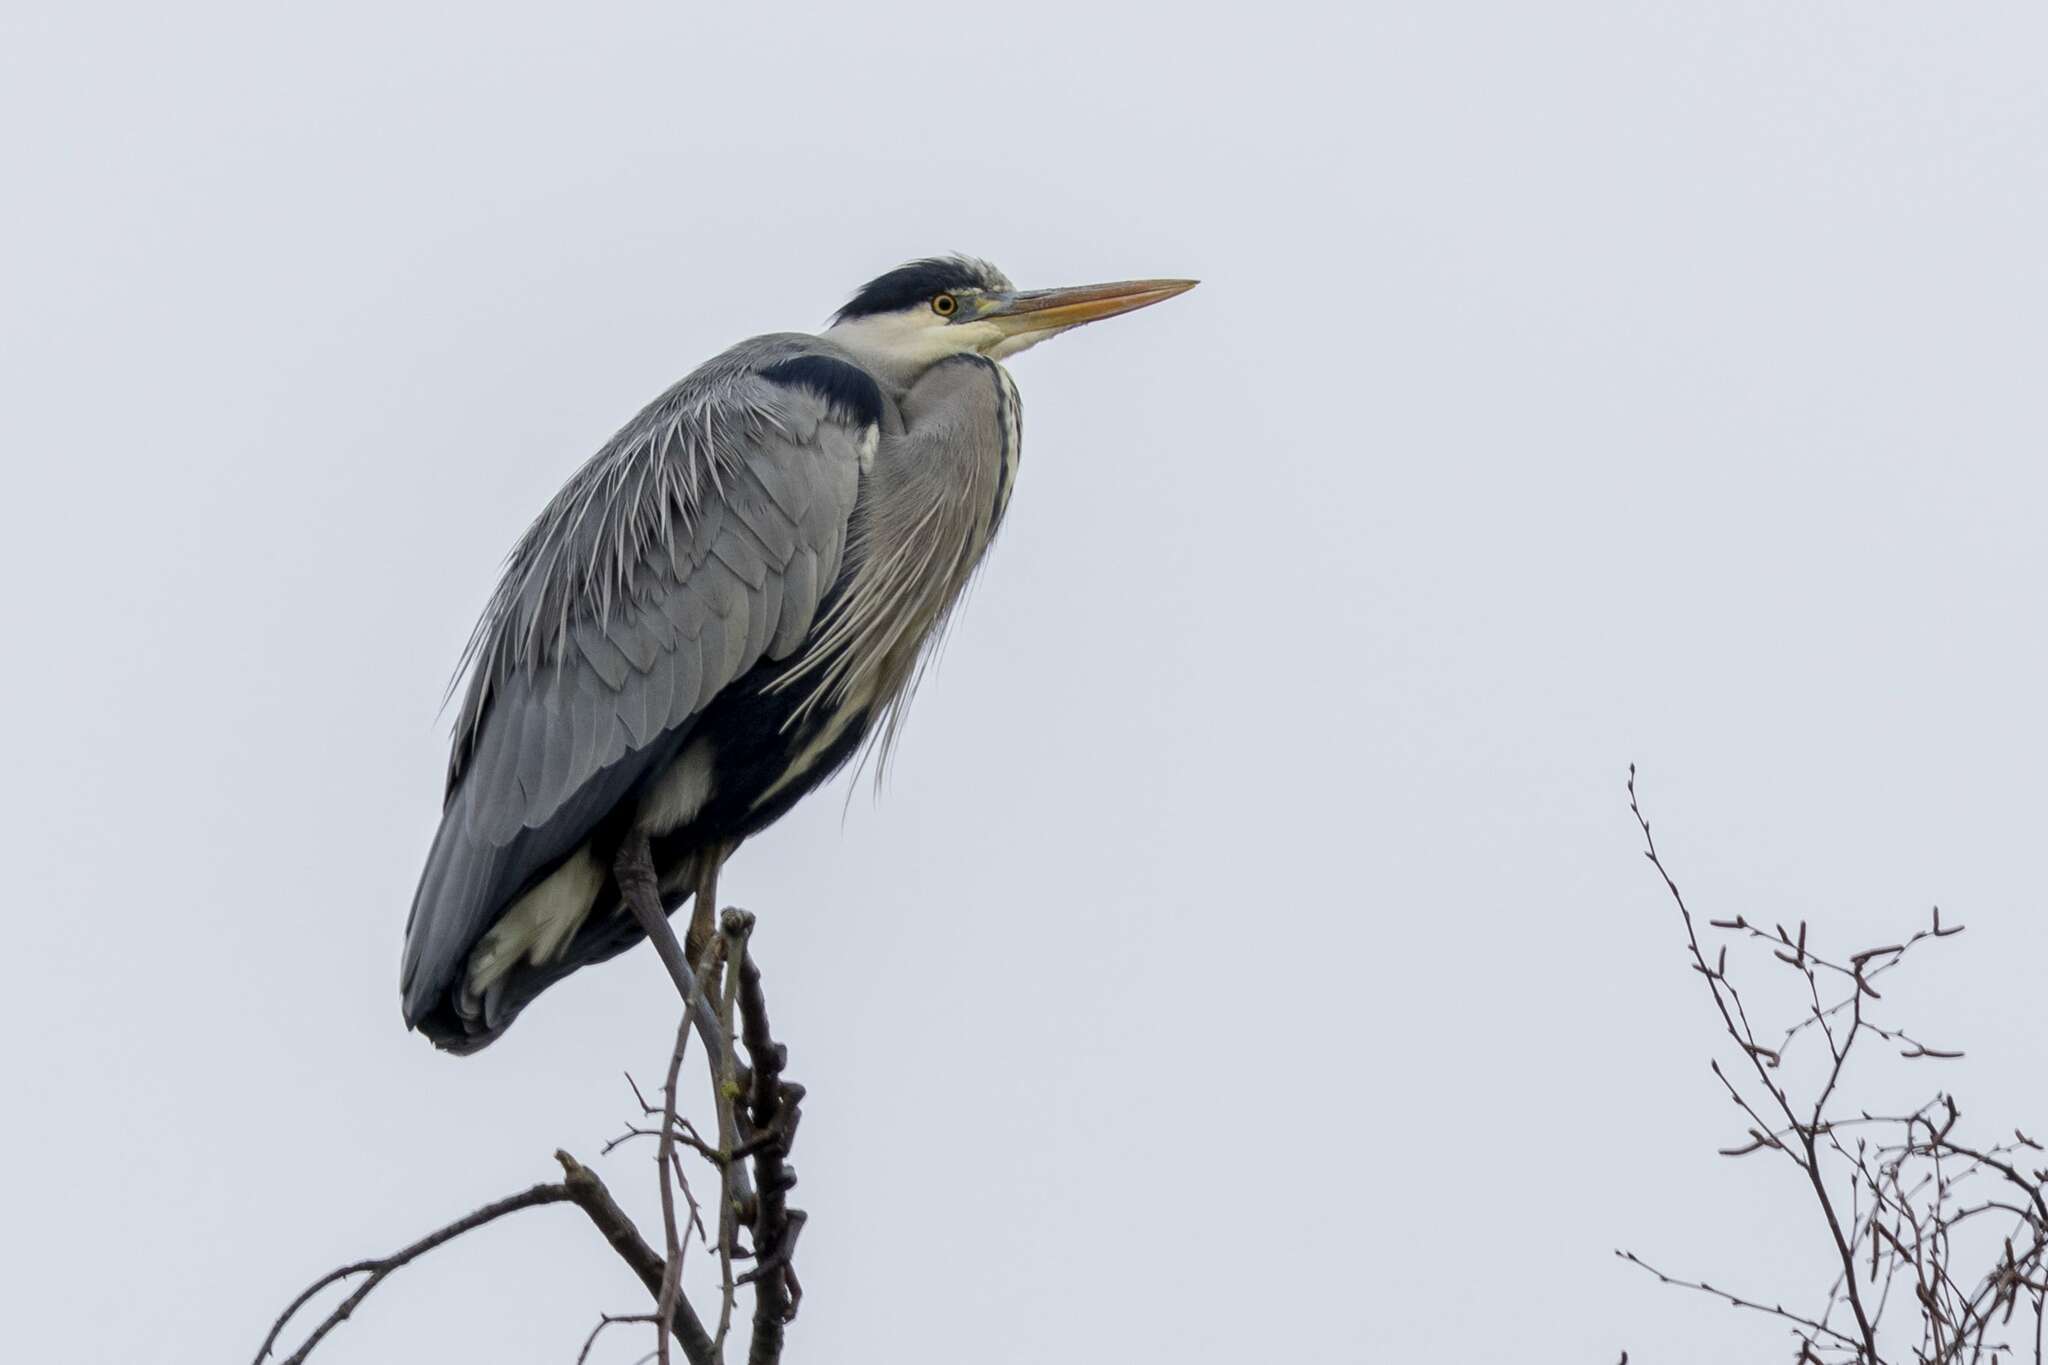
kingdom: Animalia
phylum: Chordata
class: Aves
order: Pelecaniformes
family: Ardeidae
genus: Ardea
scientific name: Ardea cinerea
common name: Grey heron
